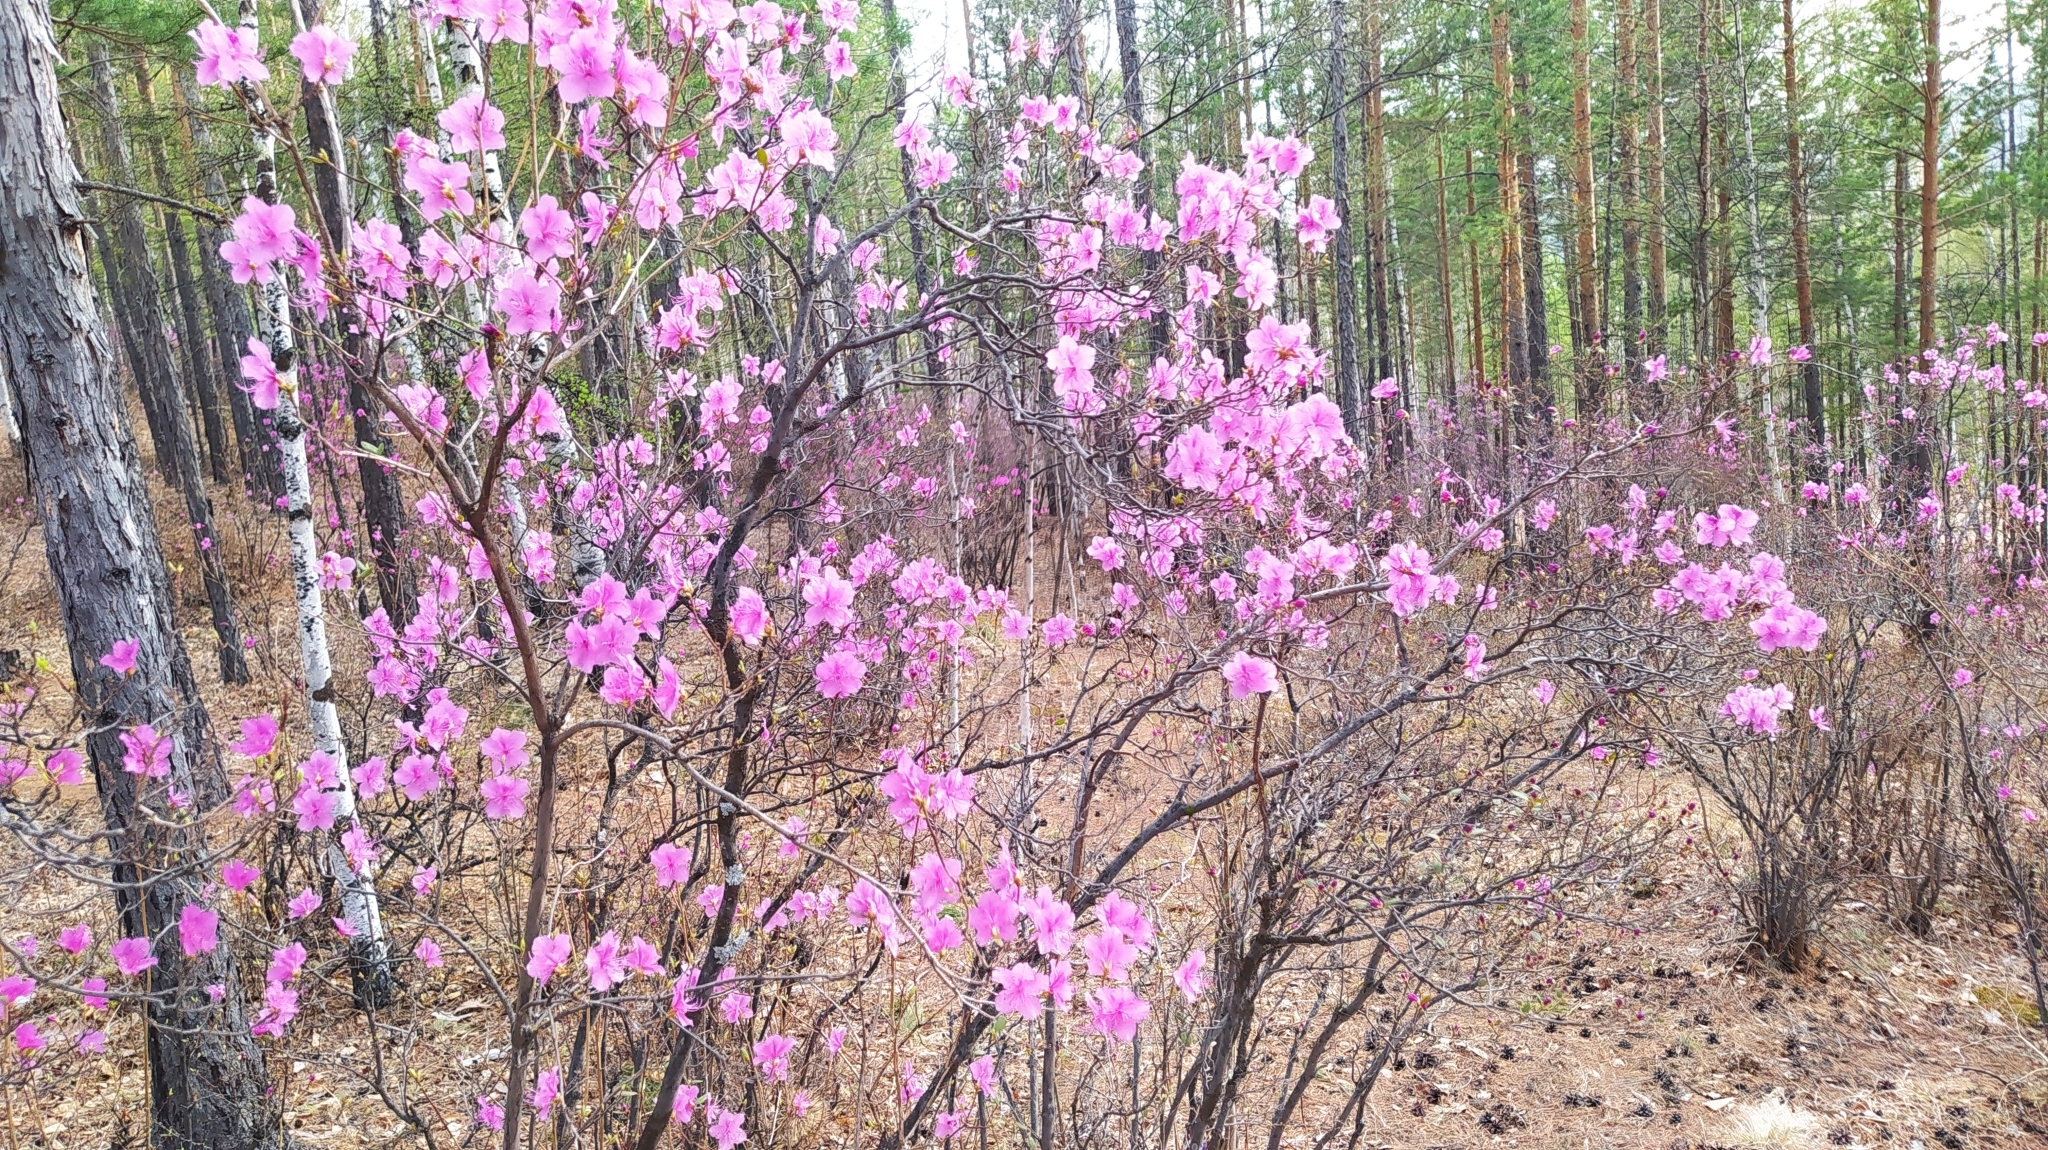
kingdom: Plantae
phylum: Tracheophyta
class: Magnoliopsida
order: Ericales
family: Ericaceae
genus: Rhododendron
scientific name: Rhododendron dauricum
